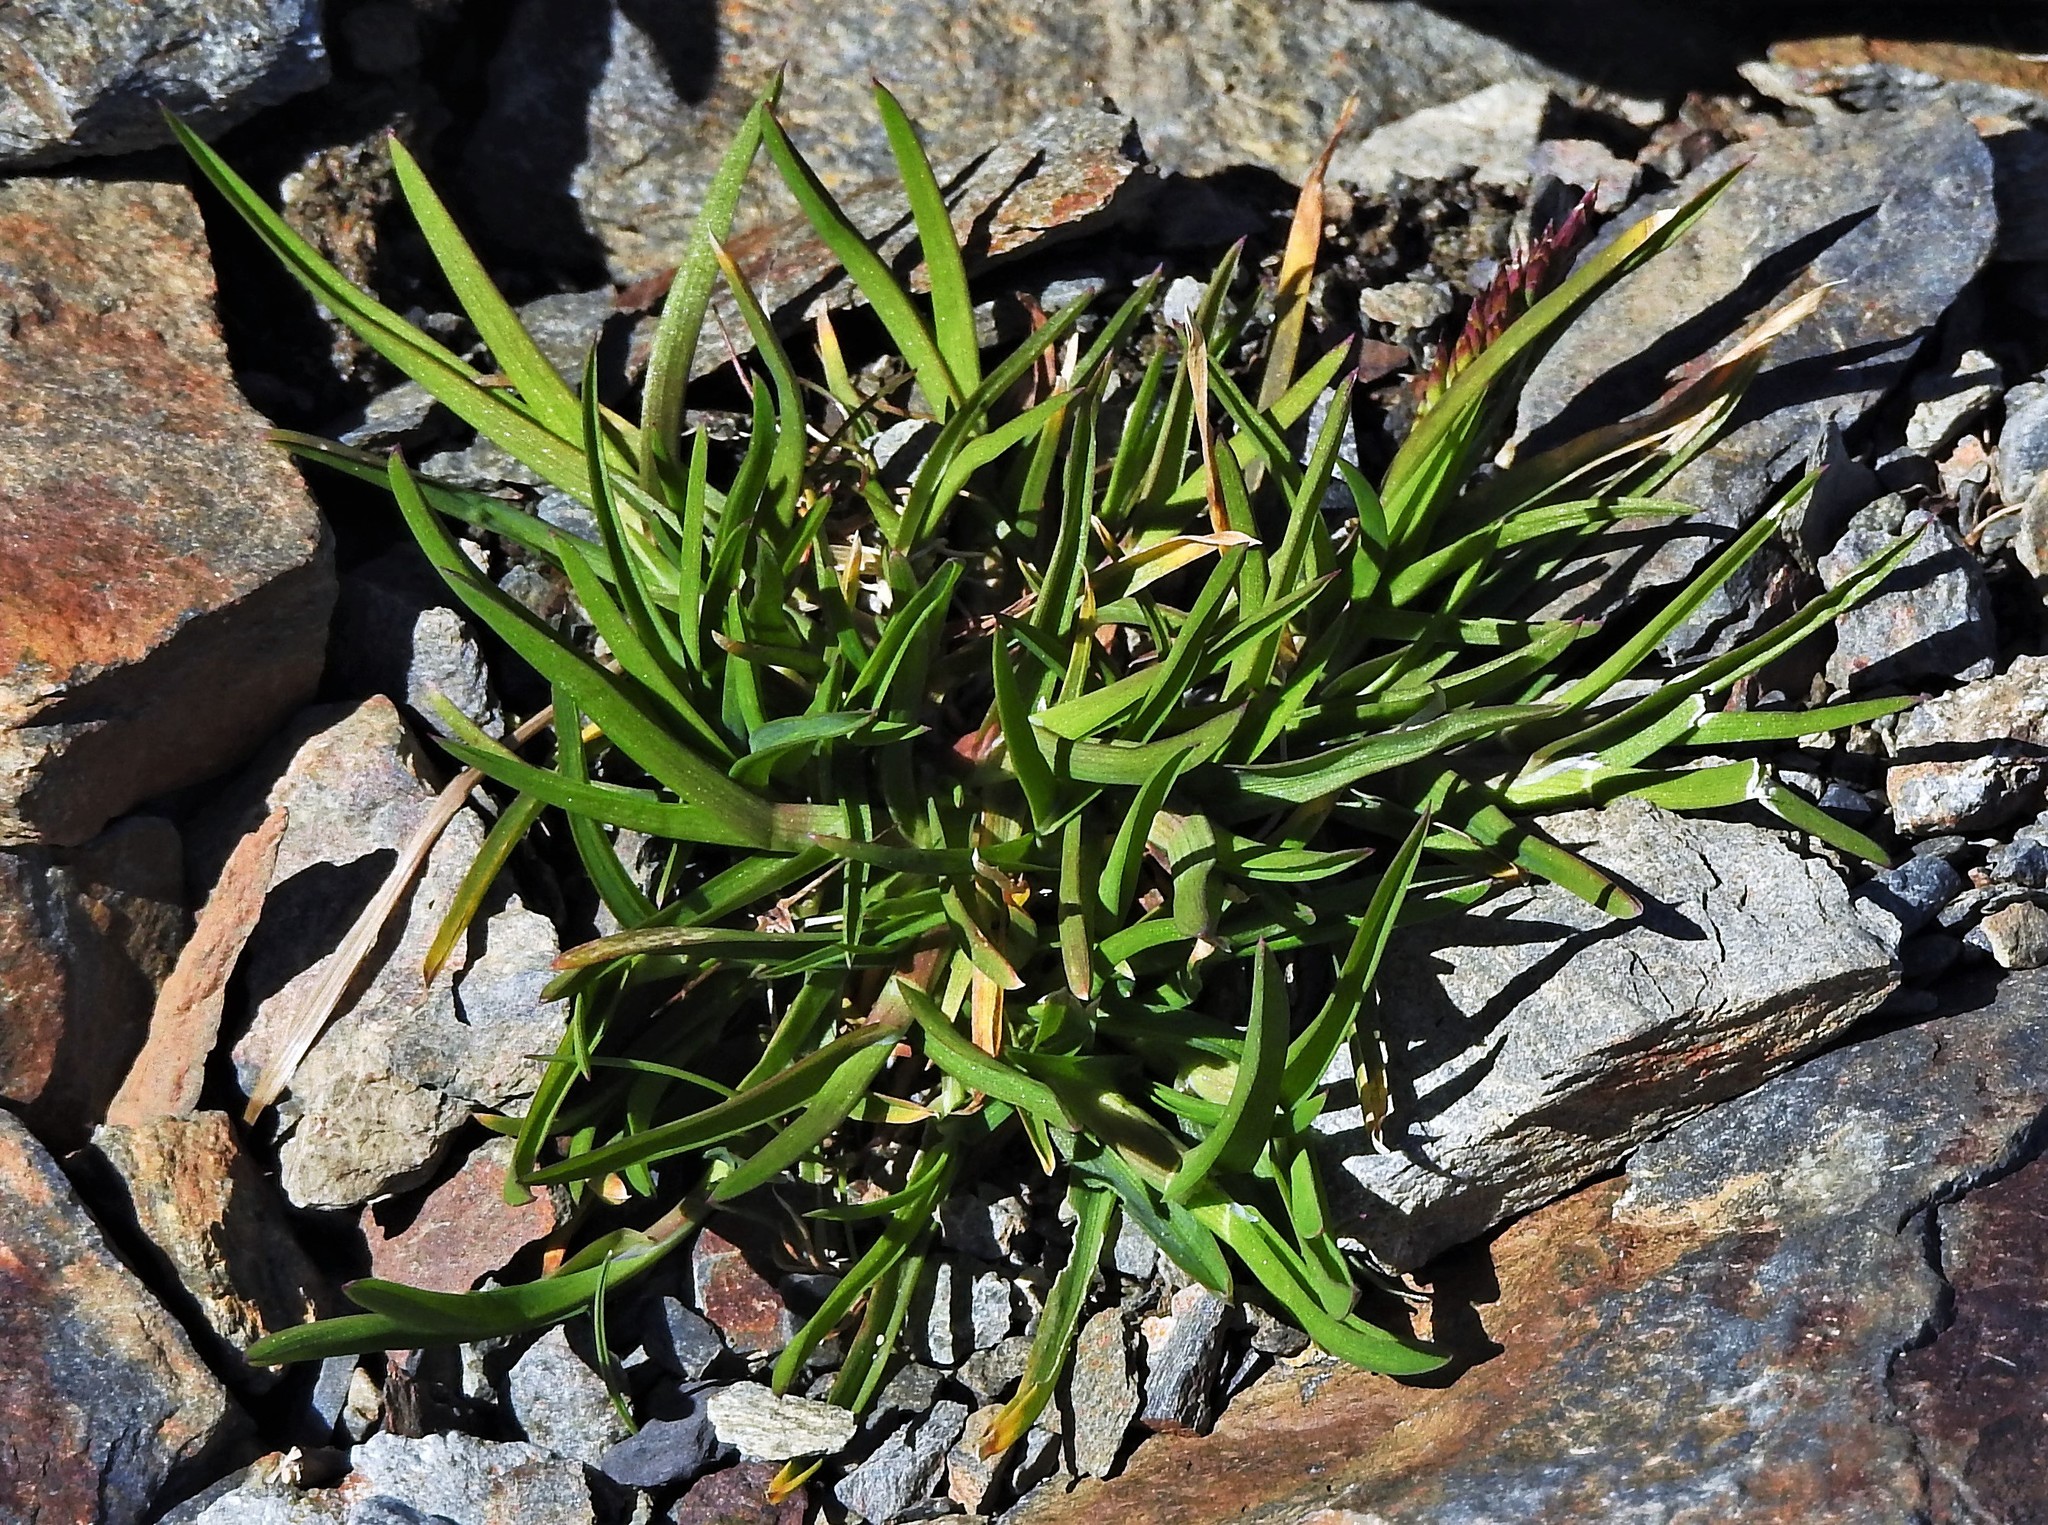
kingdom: Plantae
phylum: Tracheophyta
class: Liliopsida
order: Poales
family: Poaceae
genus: Poa
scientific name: Poa annua
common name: Annual bluegrass
